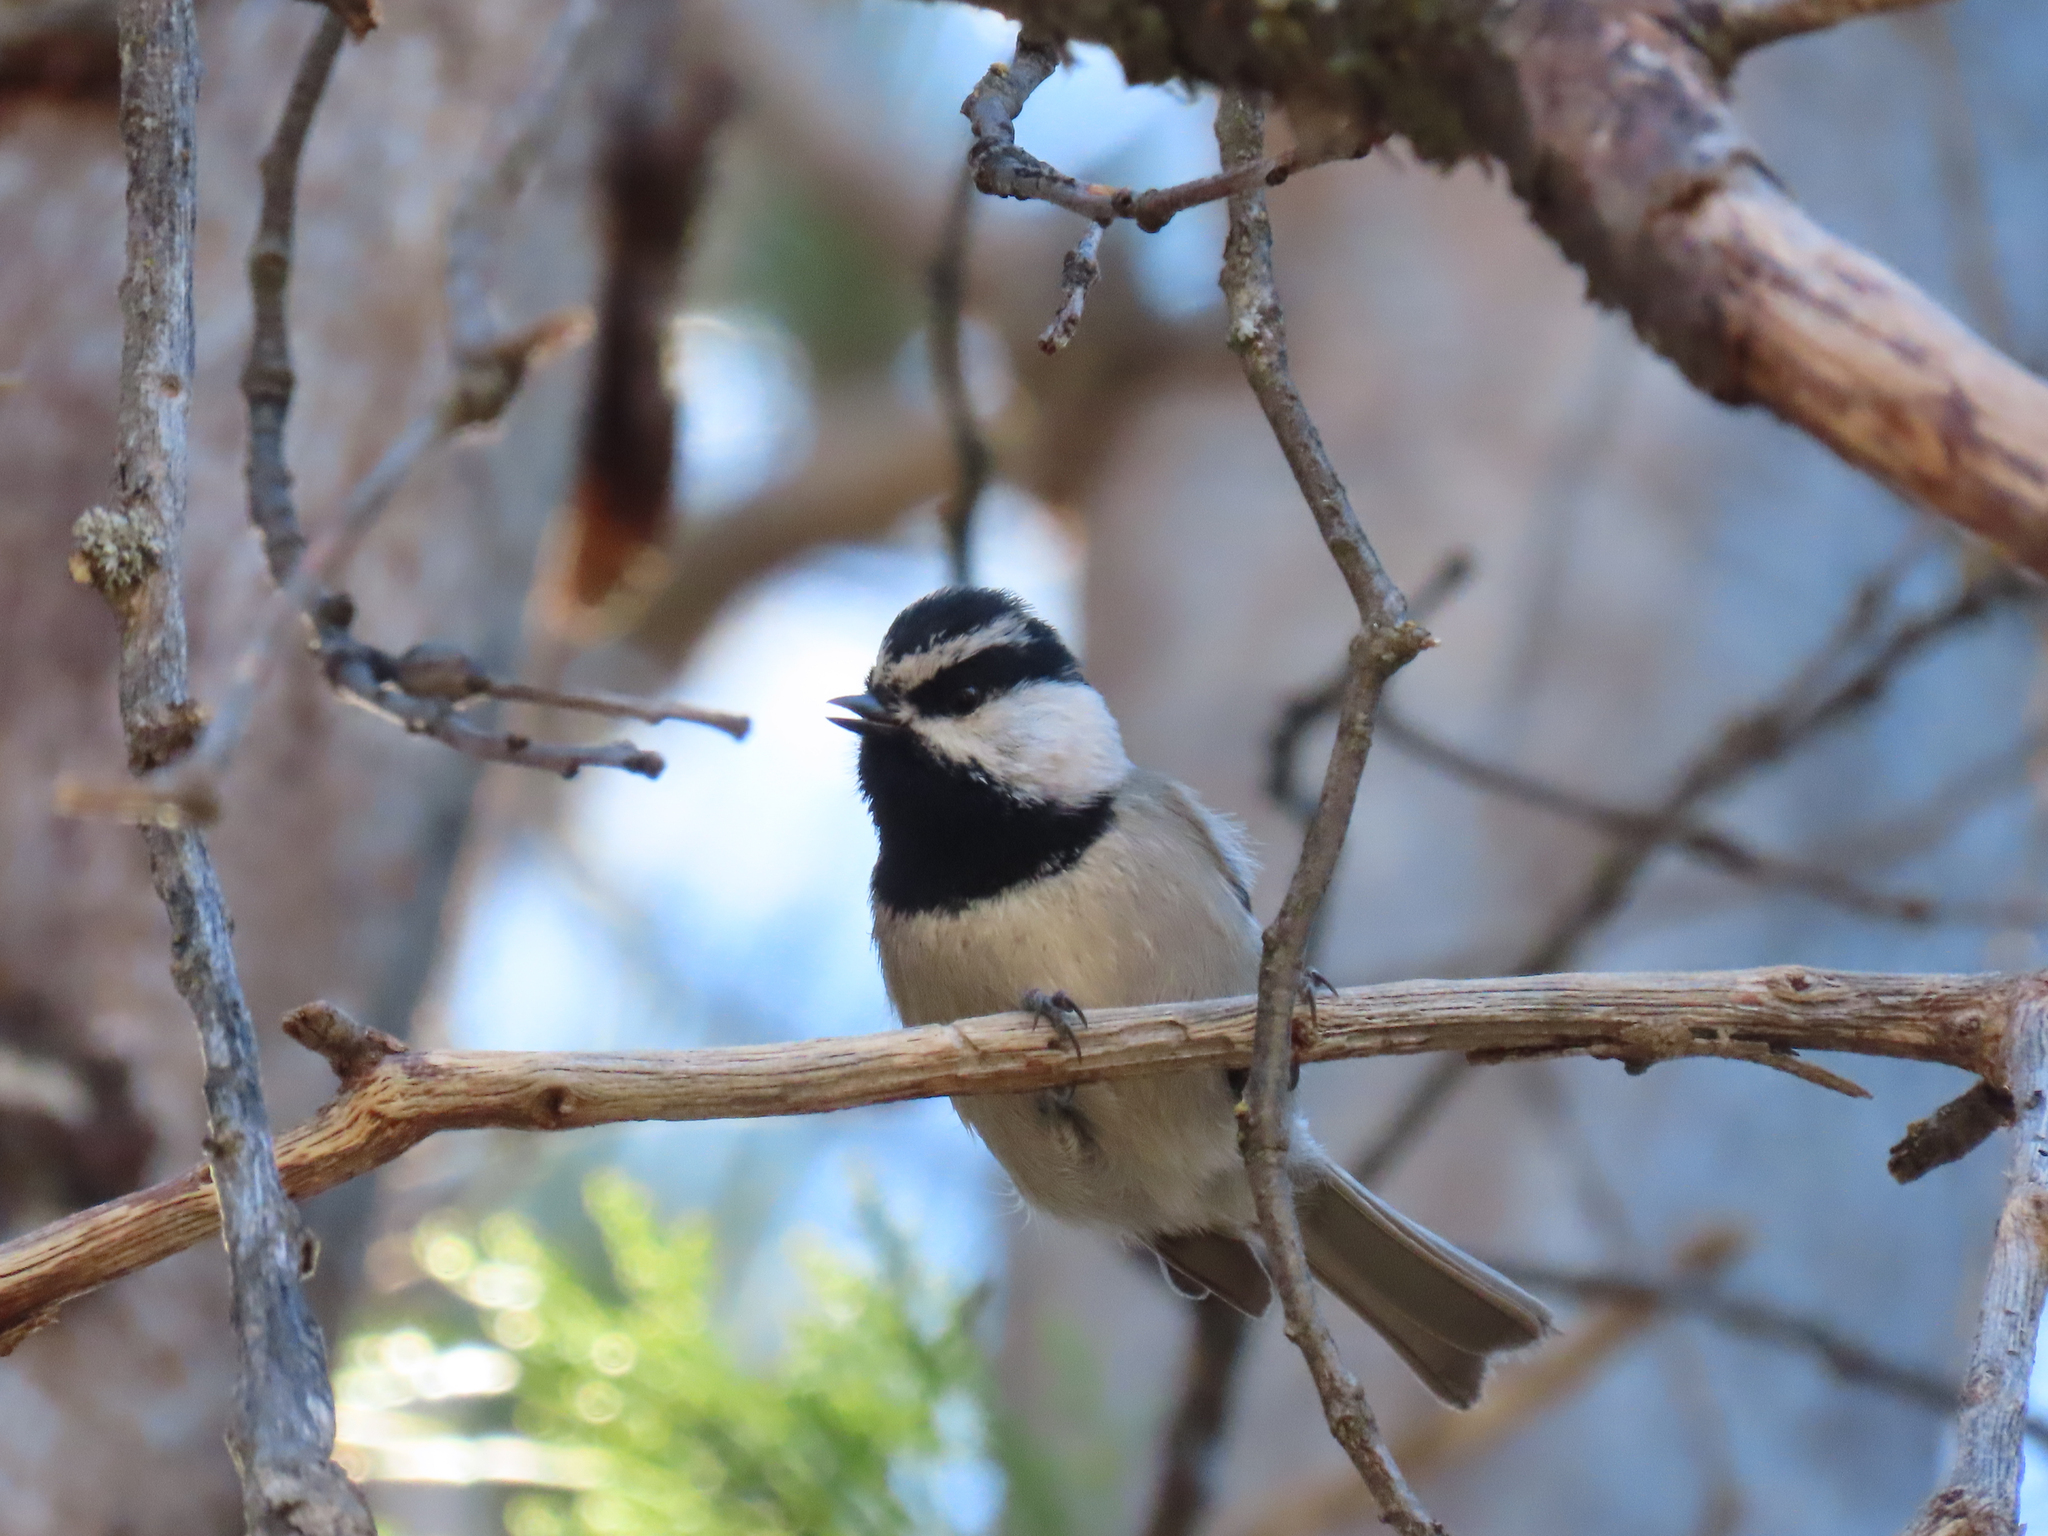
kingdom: Animalia
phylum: Chordata
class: Aves
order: Passeriformes
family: Paridae
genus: Poecile
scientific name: Poecile gambeli
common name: Mountain chickadee
